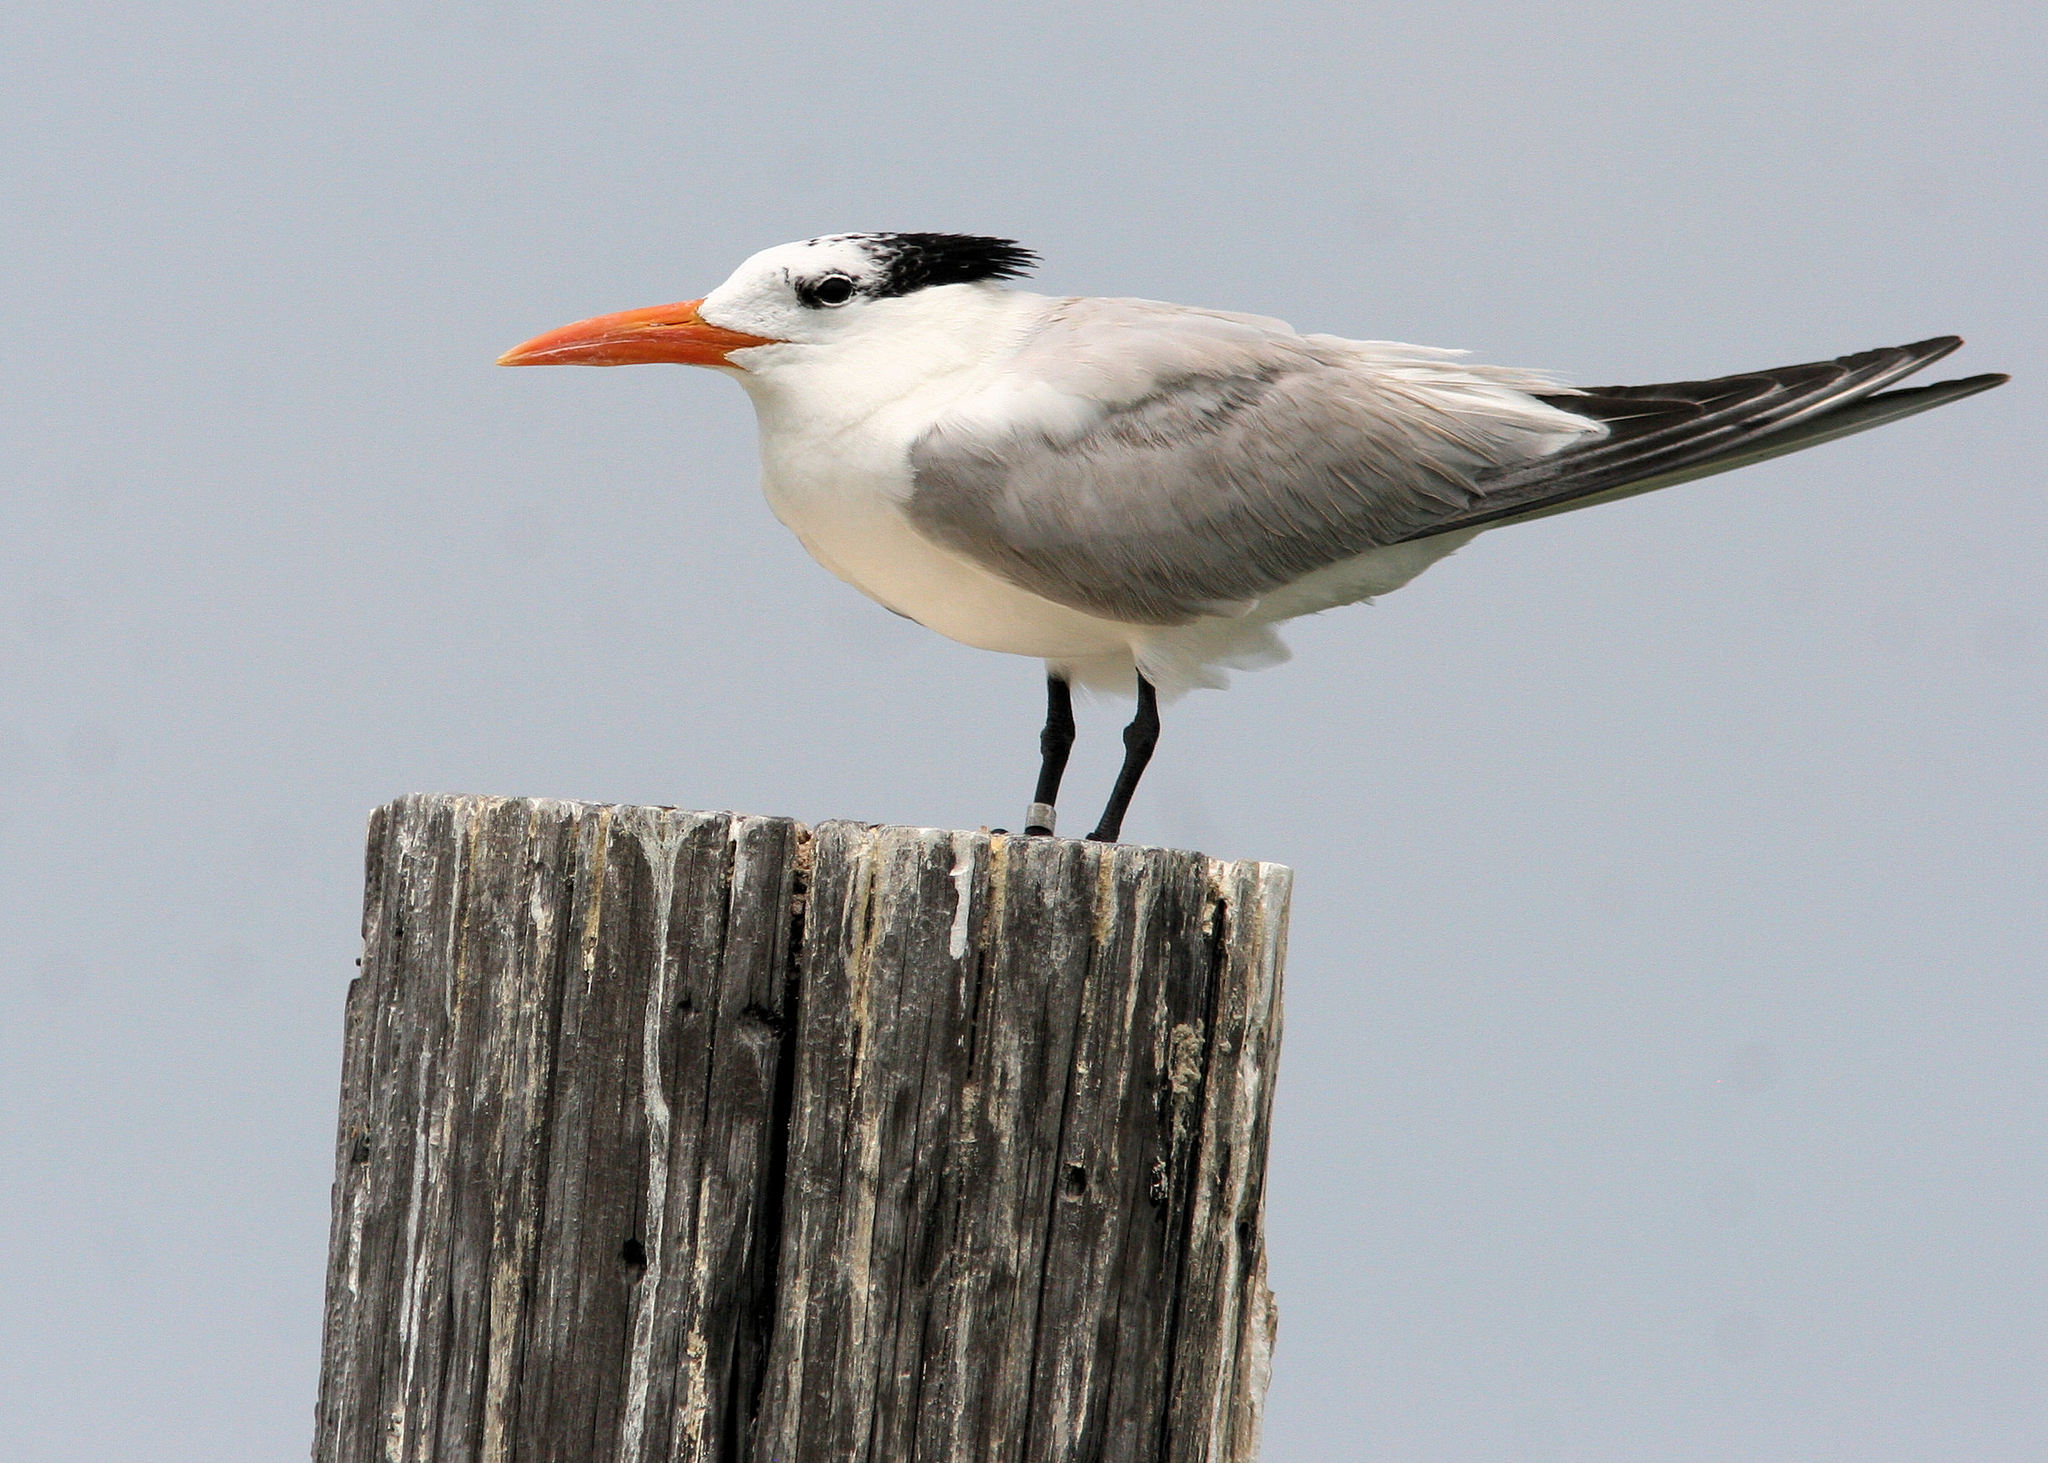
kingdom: Animalia
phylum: Chordata
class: Aves
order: Charadriiformes
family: Laridae
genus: Thalasseus
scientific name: Thalasseus maximus
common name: Royal tern
